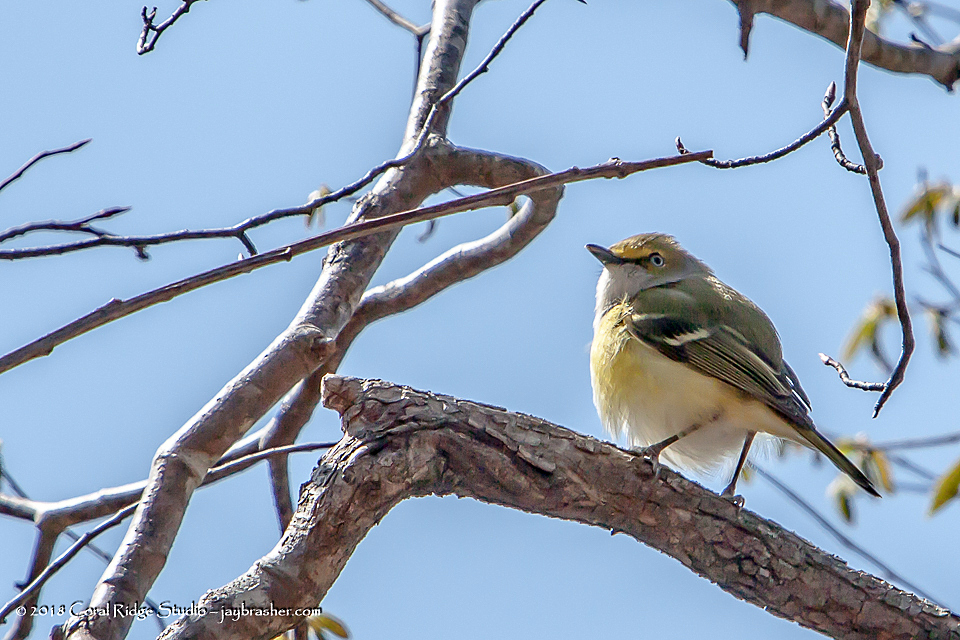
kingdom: Animalia
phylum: Chordata
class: Aves
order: Passeriformes
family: Vireonidae
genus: Vireo
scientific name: Vireo griseus
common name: White-eyed vireo
